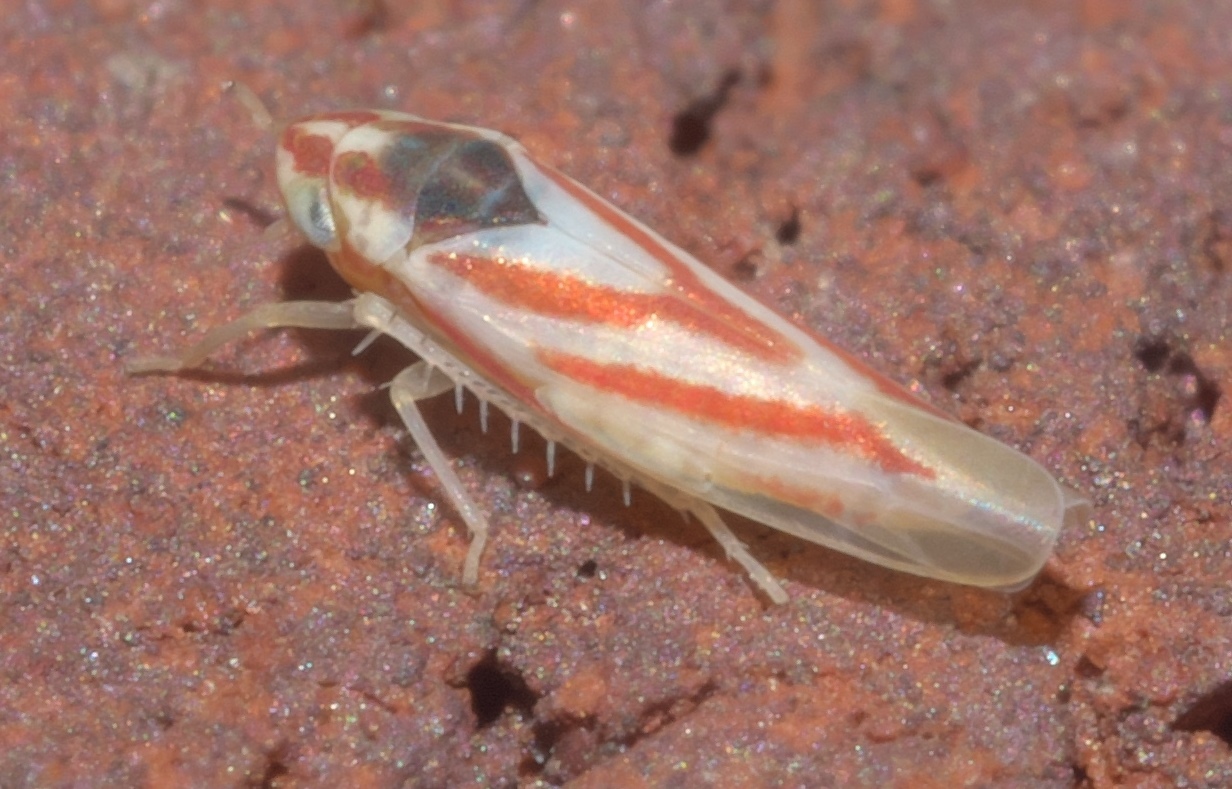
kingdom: Animalia
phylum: Arthropoda
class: Insecta
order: Hemiptera
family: Cicadellidae
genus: Erythridula
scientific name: Erythridula noeva
